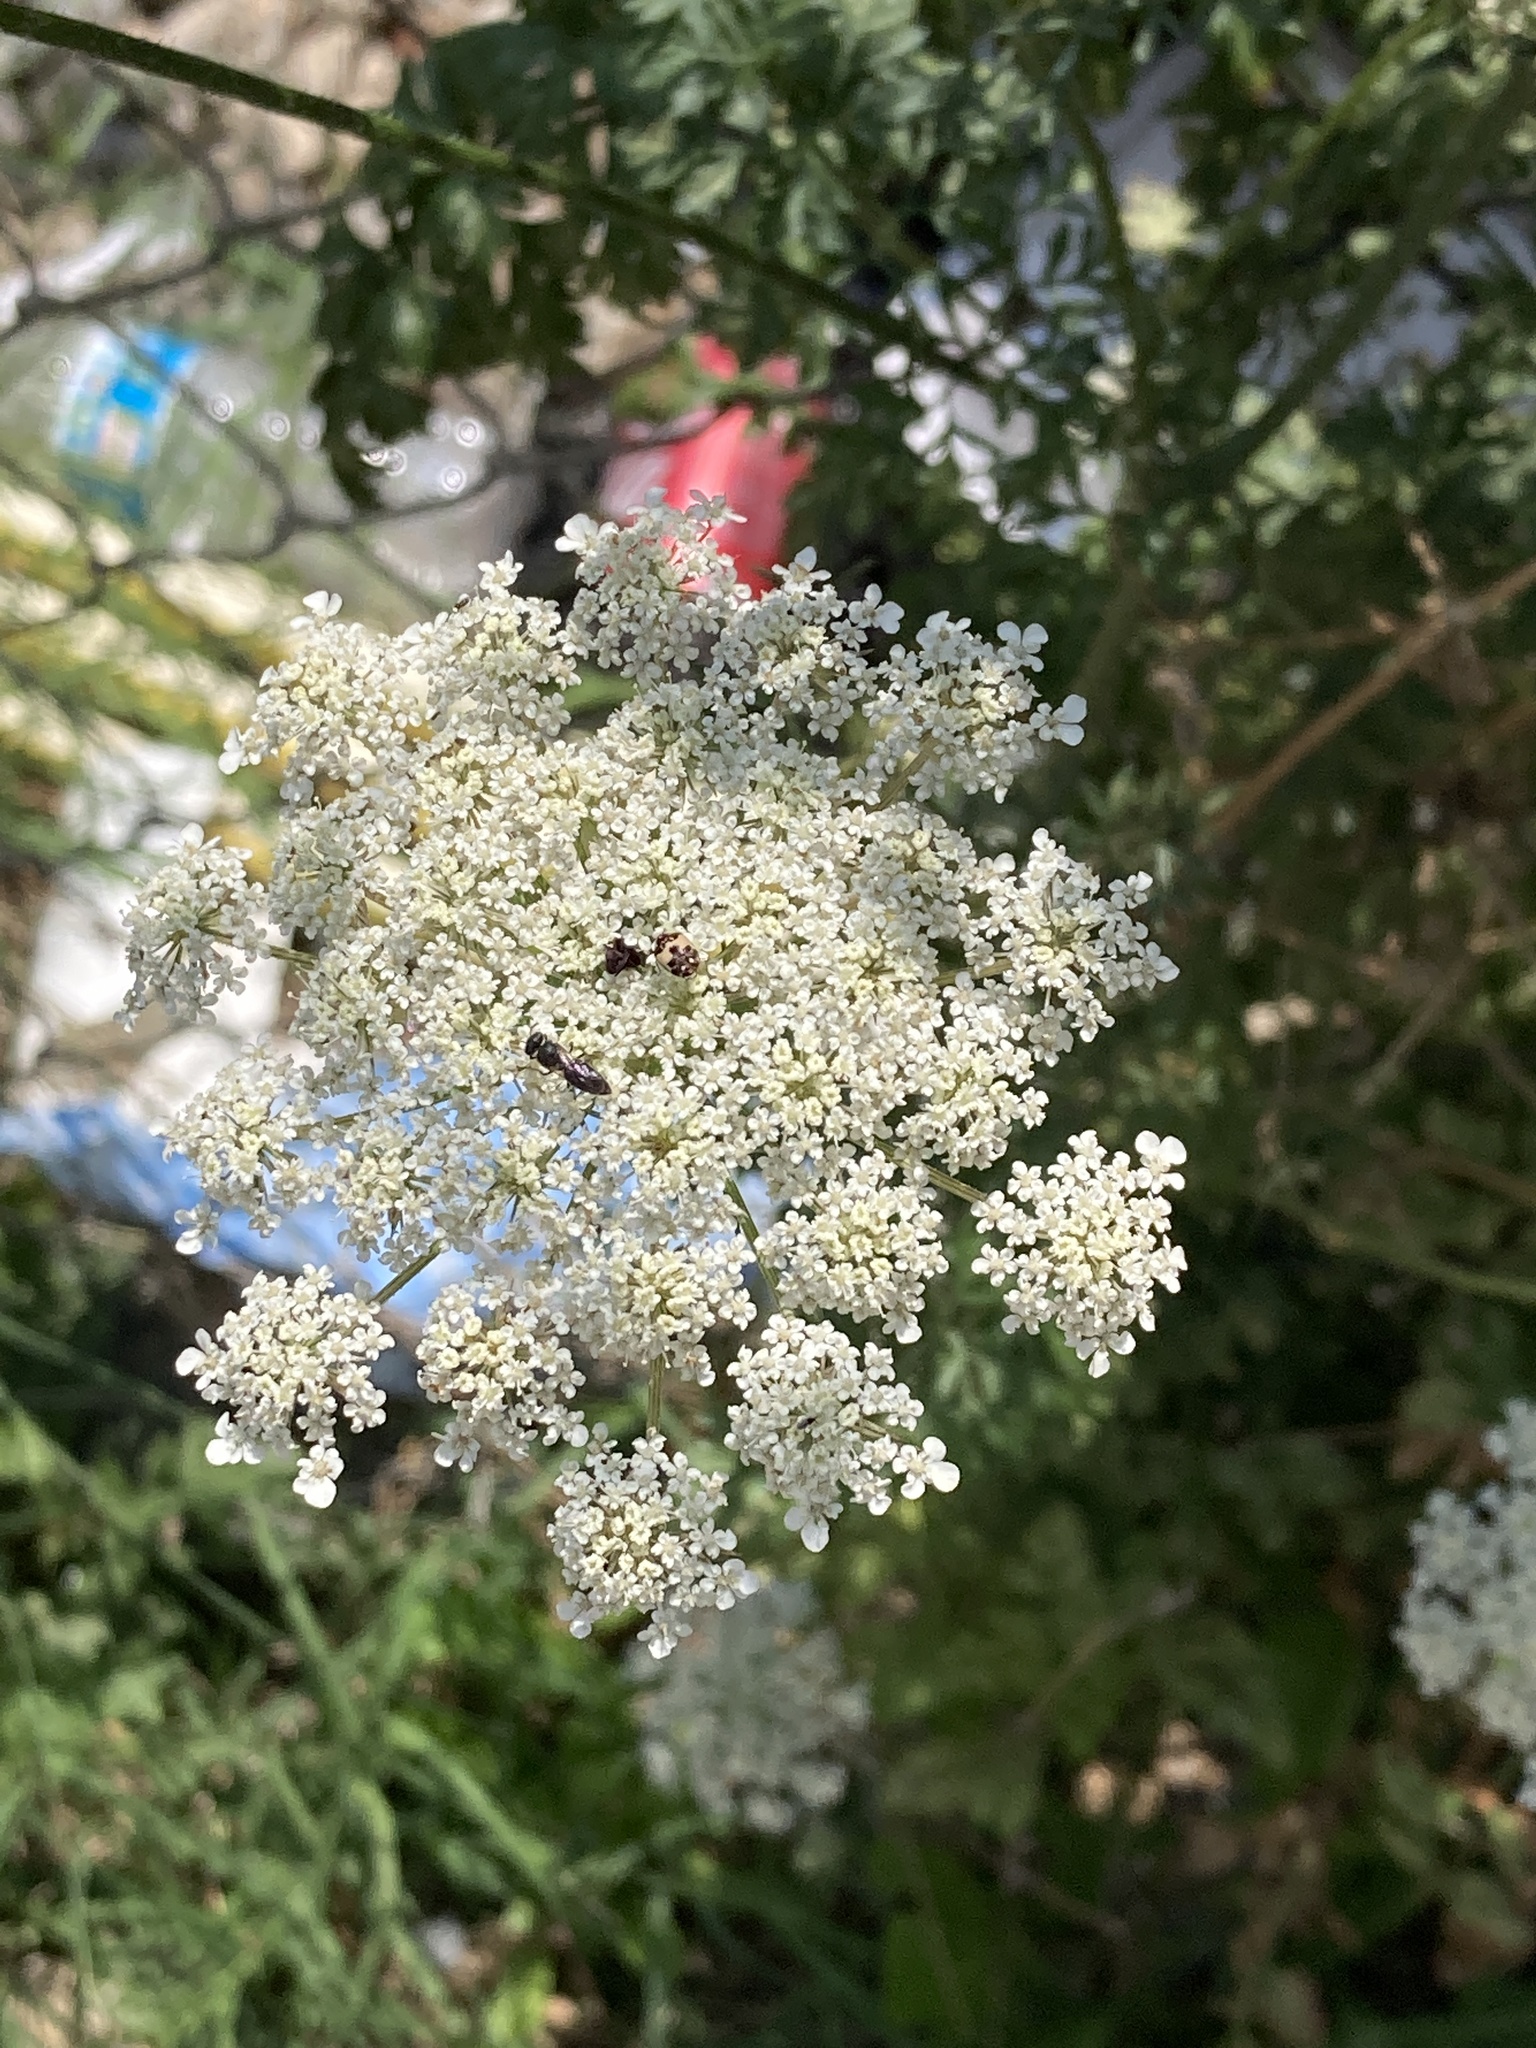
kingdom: Plantae
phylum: Tracheophyta
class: Magnoliopsida
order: Apiales
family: Apiaceae
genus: Daucus
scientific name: Daucus carota
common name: Wild carrot
